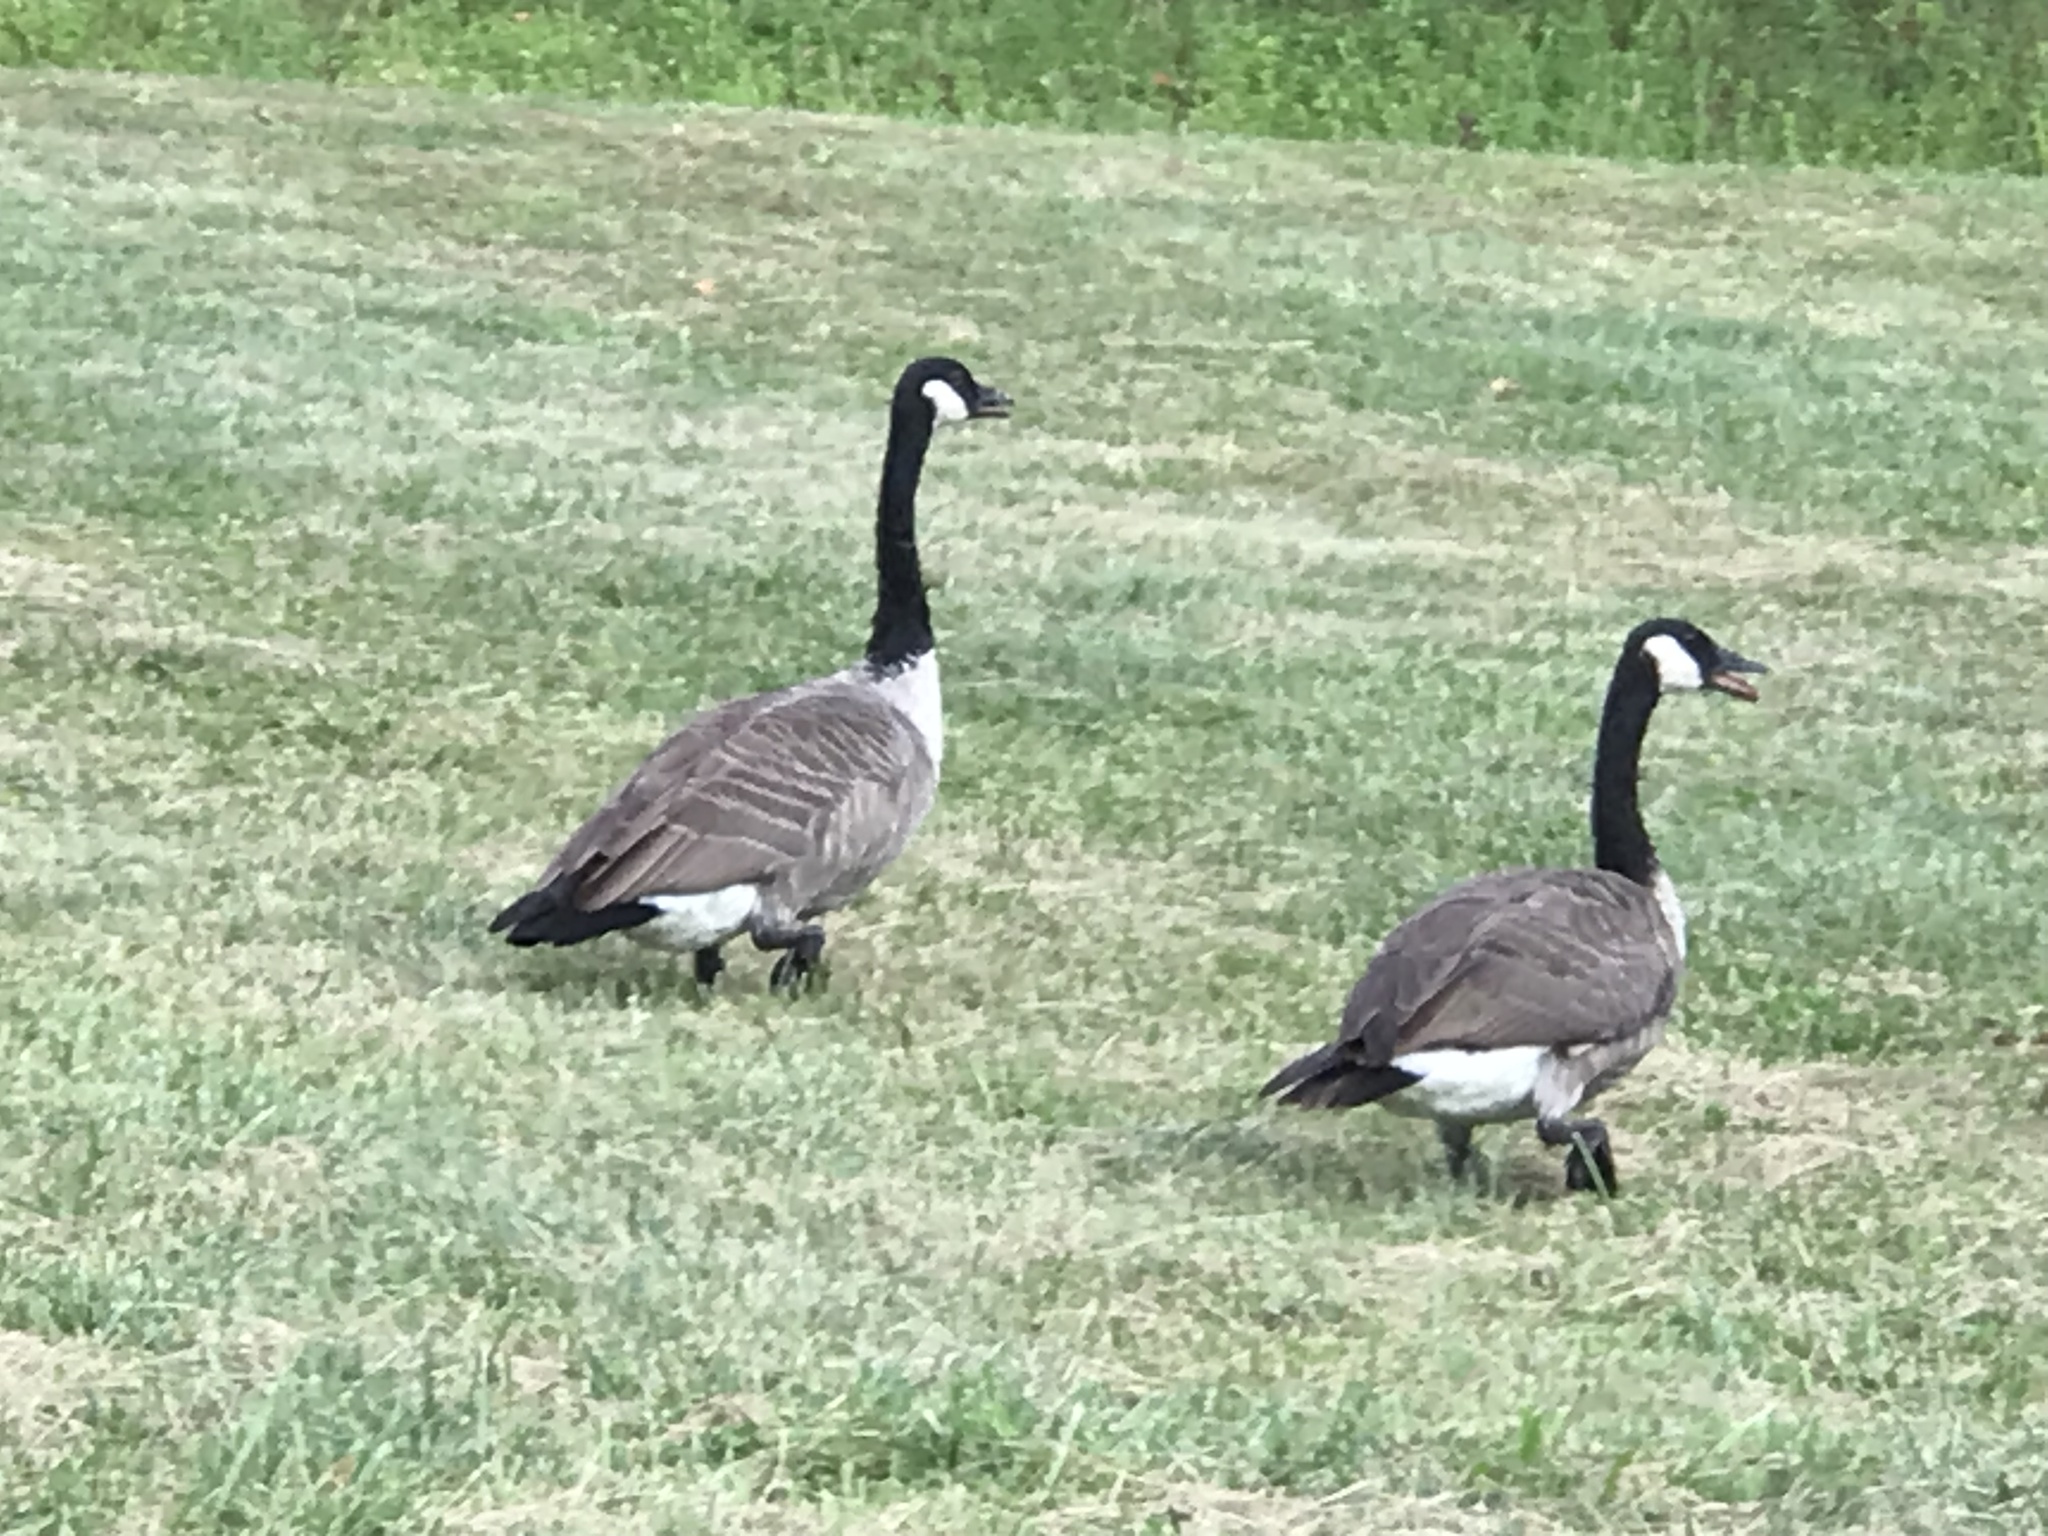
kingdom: Animalia
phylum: Chordata
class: Aves
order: Anseriformes
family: Anatidae
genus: Branta
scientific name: Branta canadensis
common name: Canada goose
